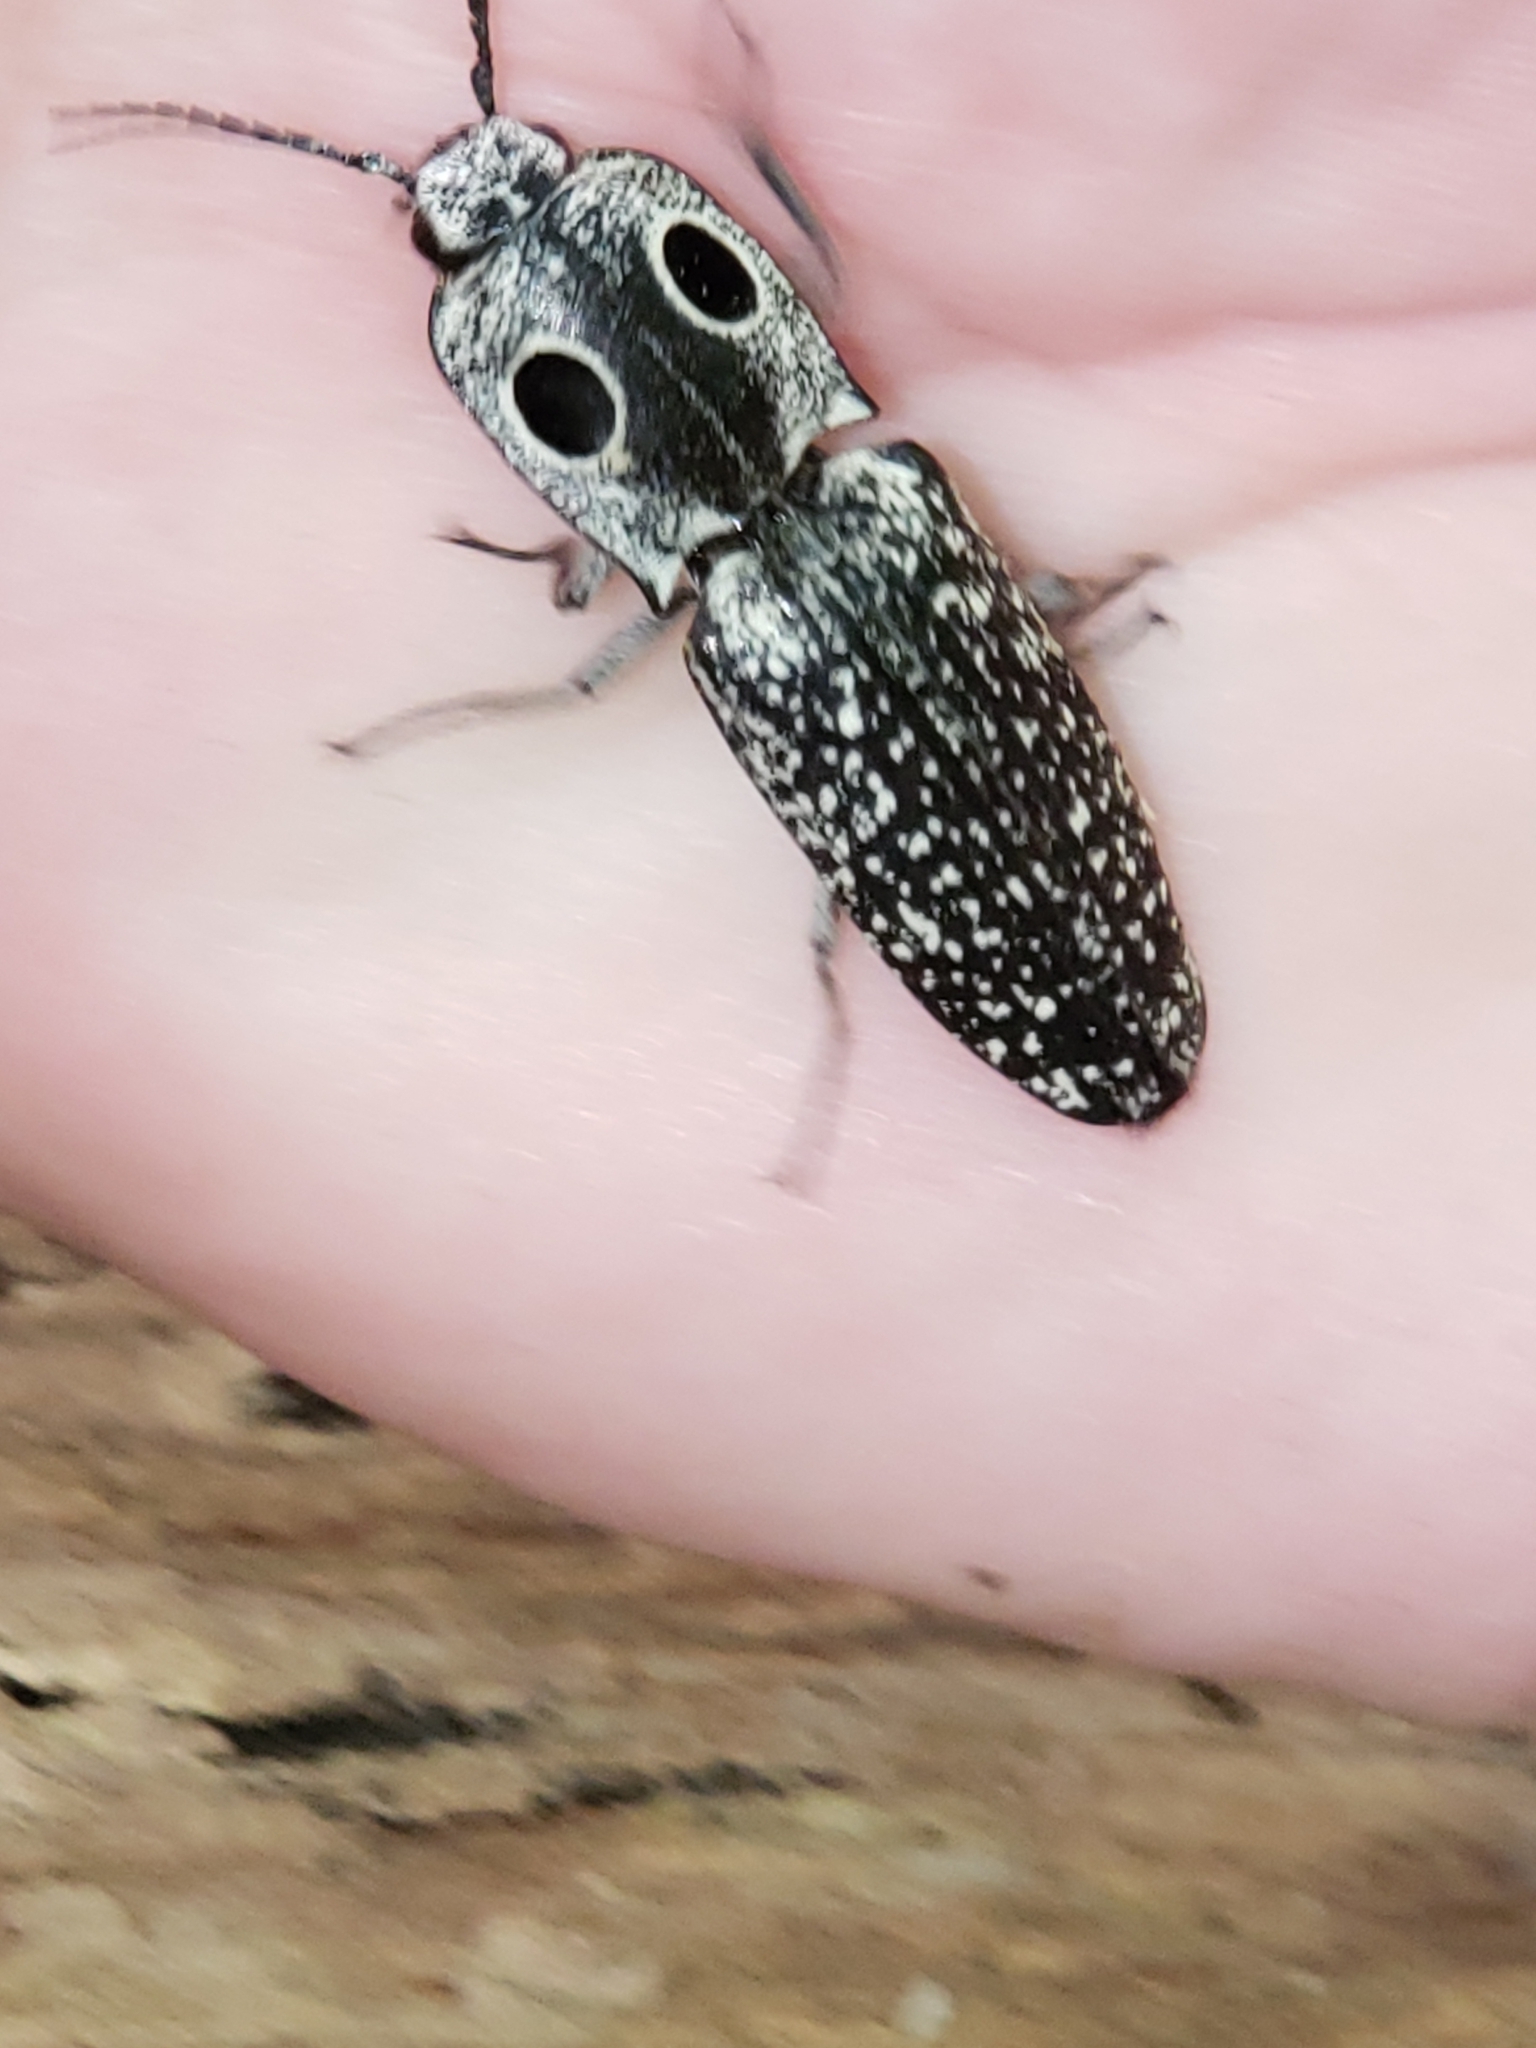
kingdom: Animalia
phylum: Arthropoda
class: Insecta
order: Coleoptera
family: Elateridae
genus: Alaus
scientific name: Alaus oculatus
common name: Eastern eyed click beetle
